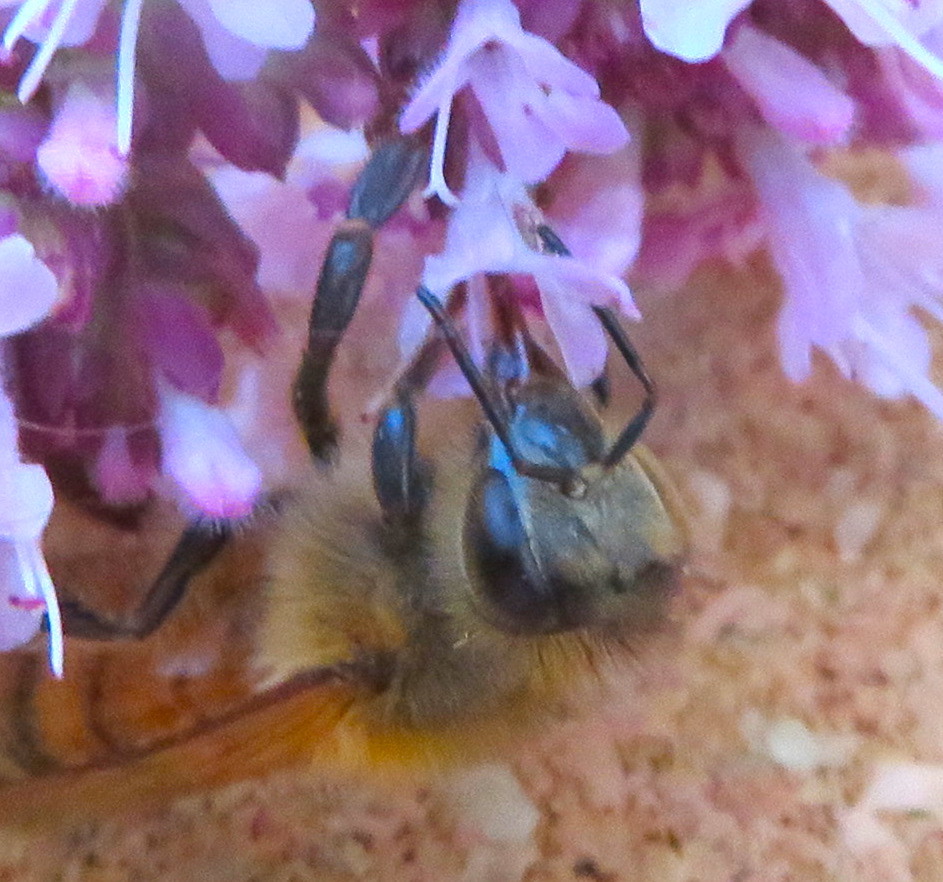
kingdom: Animalia
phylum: Arthropoda
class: Insecta
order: Hymenoptera
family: Apidae
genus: Apis
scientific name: Apis mellifera
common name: Honey bee
